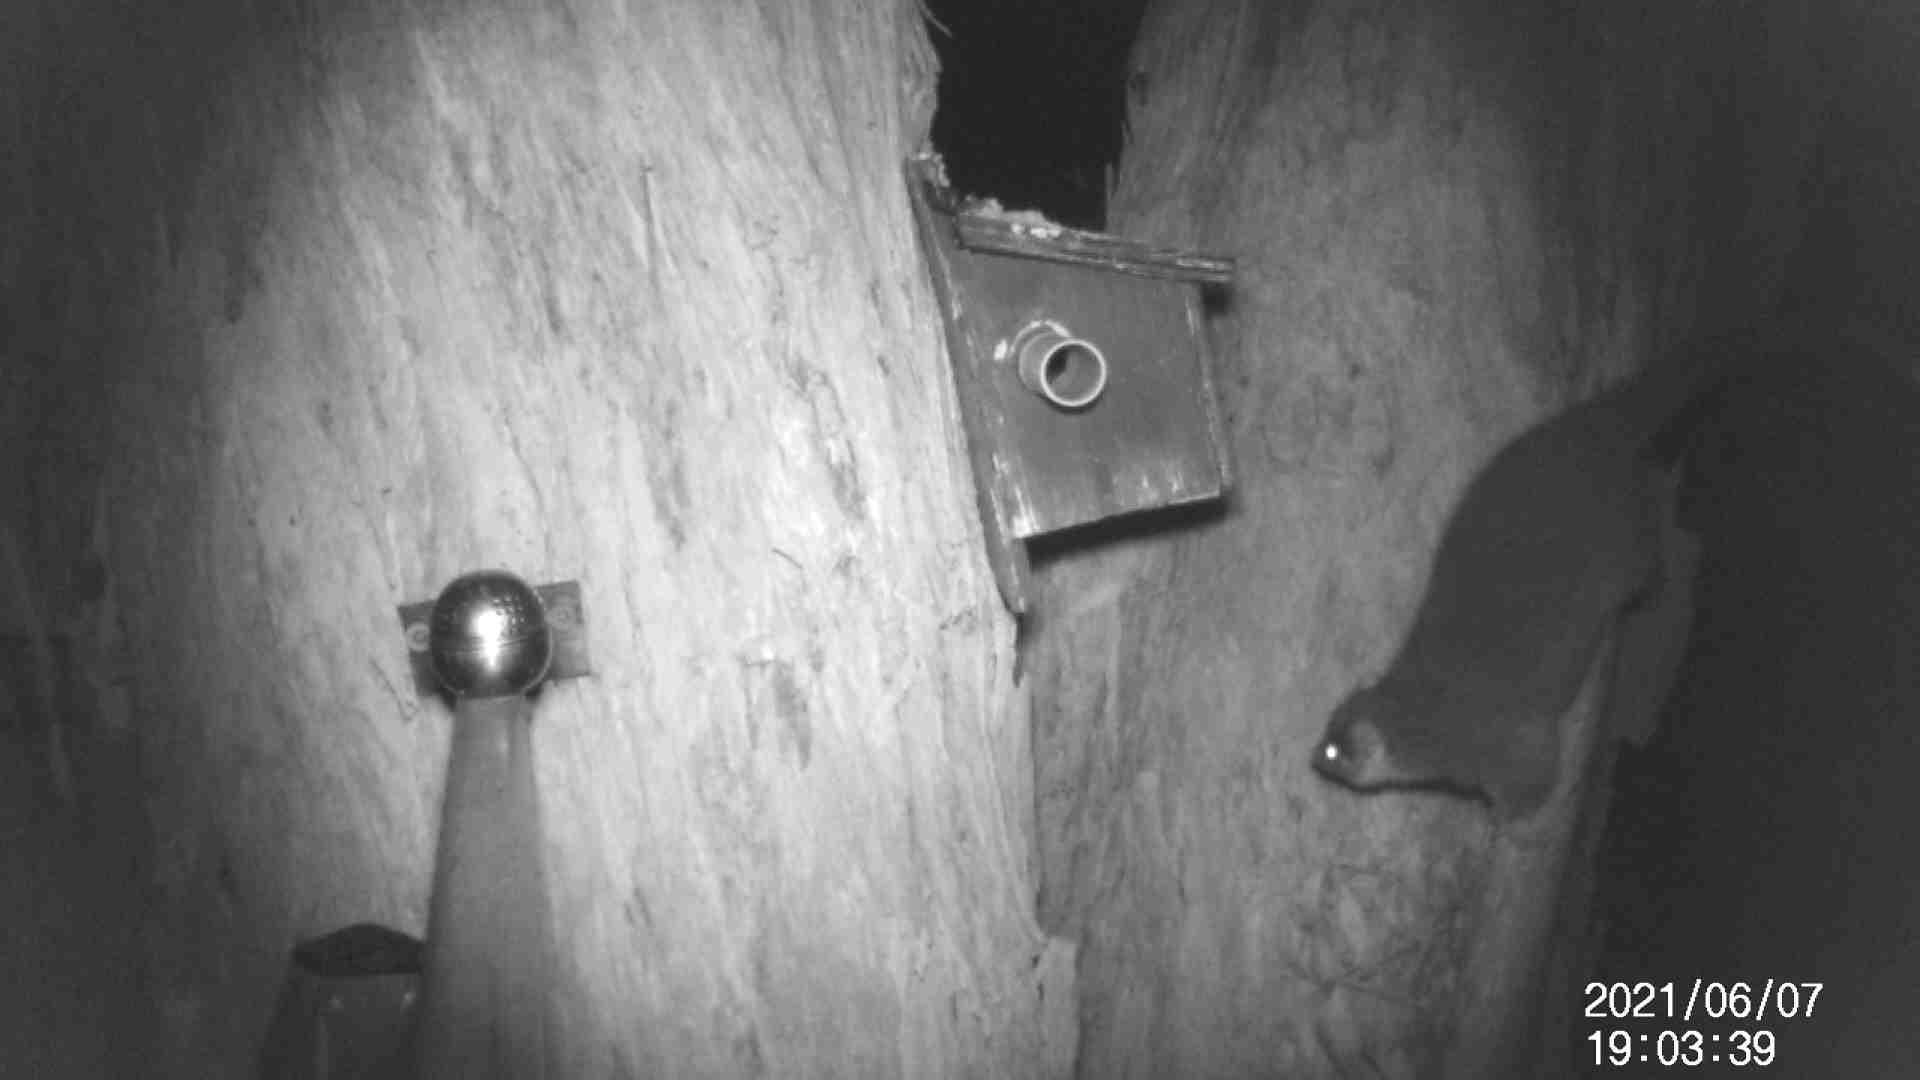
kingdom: Animalia
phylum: Chordata
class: Mammalia
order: Diprotodontia
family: Pseudocheiridae
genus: Pseudocheirus
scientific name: Pseudocheirus peregrinus
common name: Common ringtail possum
